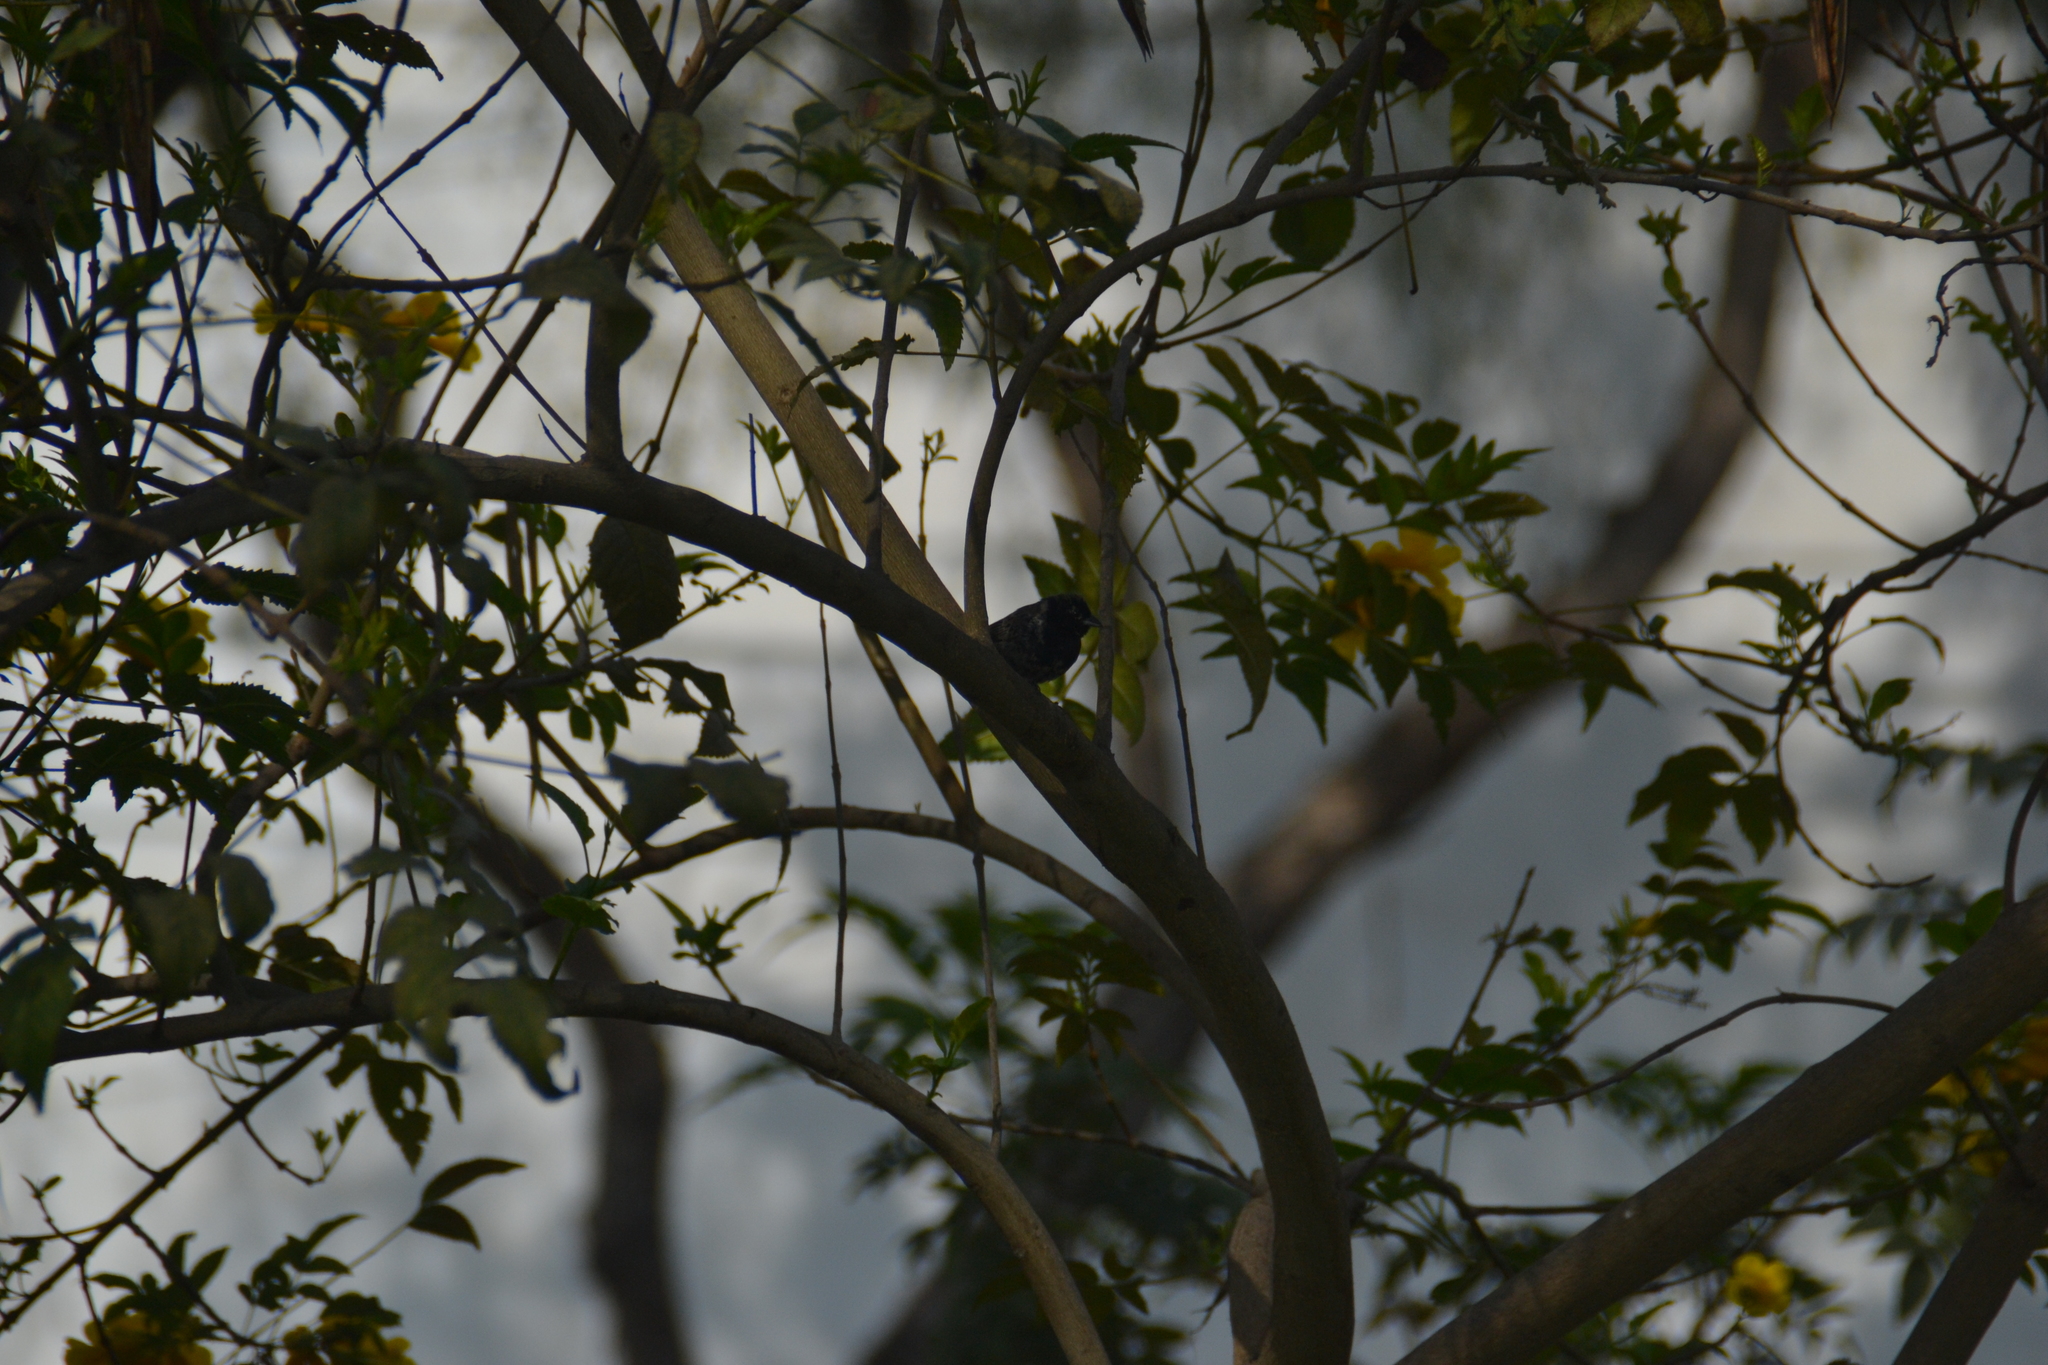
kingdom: Animalia
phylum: Chordata
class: Aves
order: Passeriformes
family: Thraupidae
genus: Volatinia
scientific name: Volatinia jacarina
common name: Blue-black grassquit
